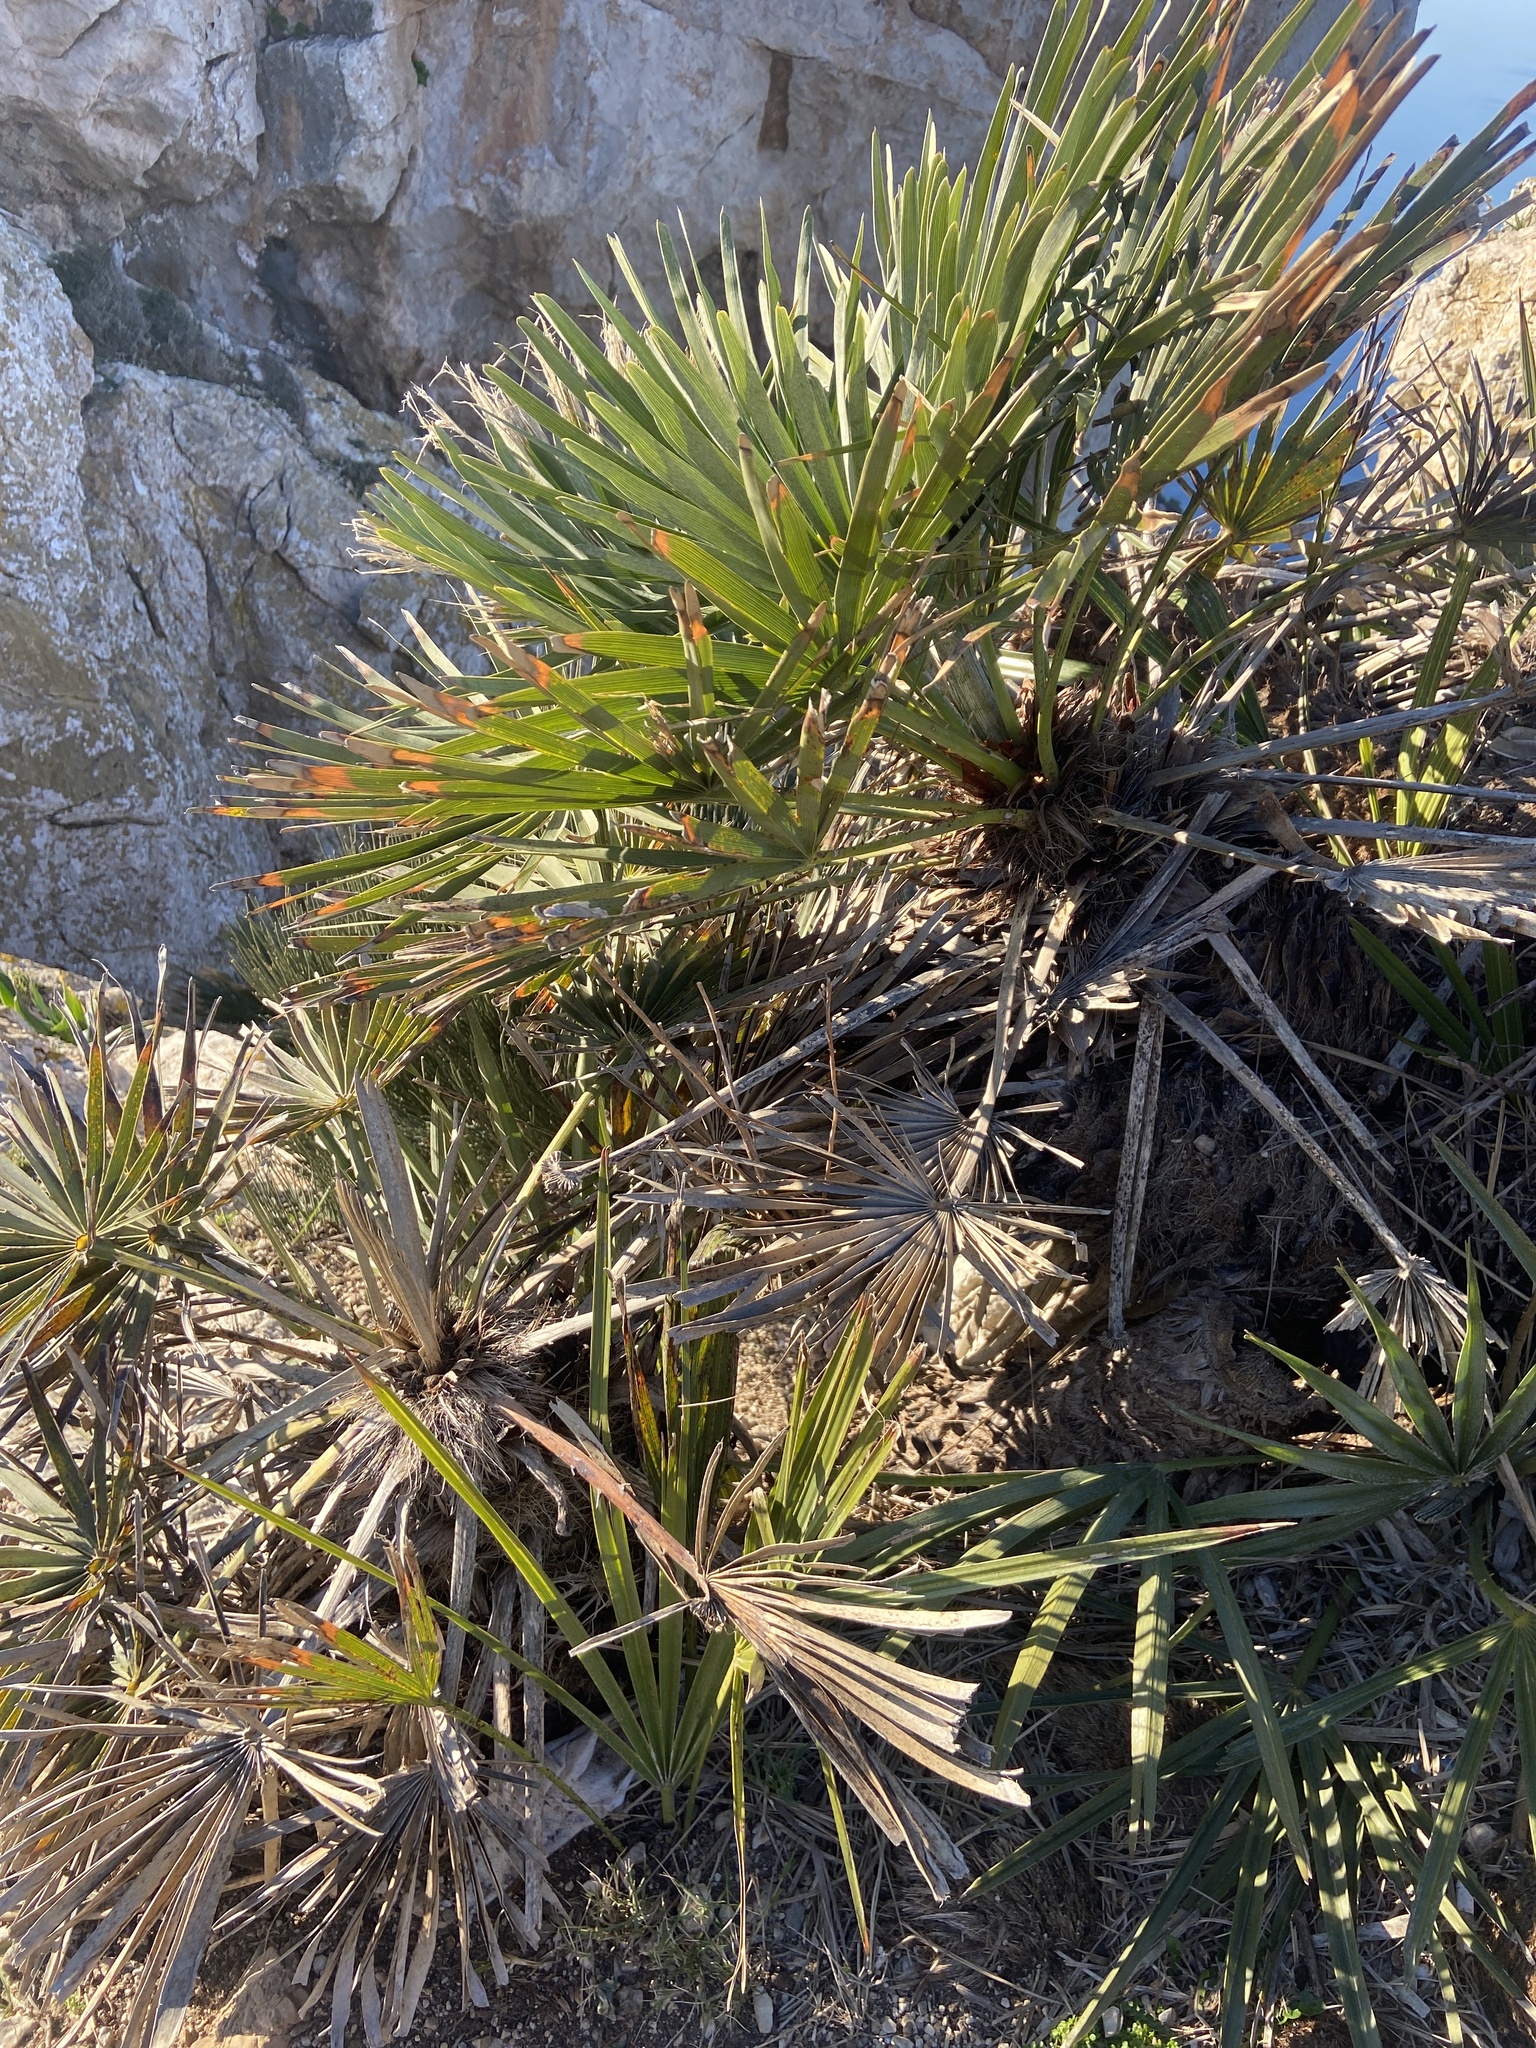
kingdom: Plantae
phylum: Tracheophyta
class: Liliopsida
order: Arecales
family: Arecaceae
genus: Chamaerops
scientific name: Chamaerops humilis
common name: Dwarf fan palm
